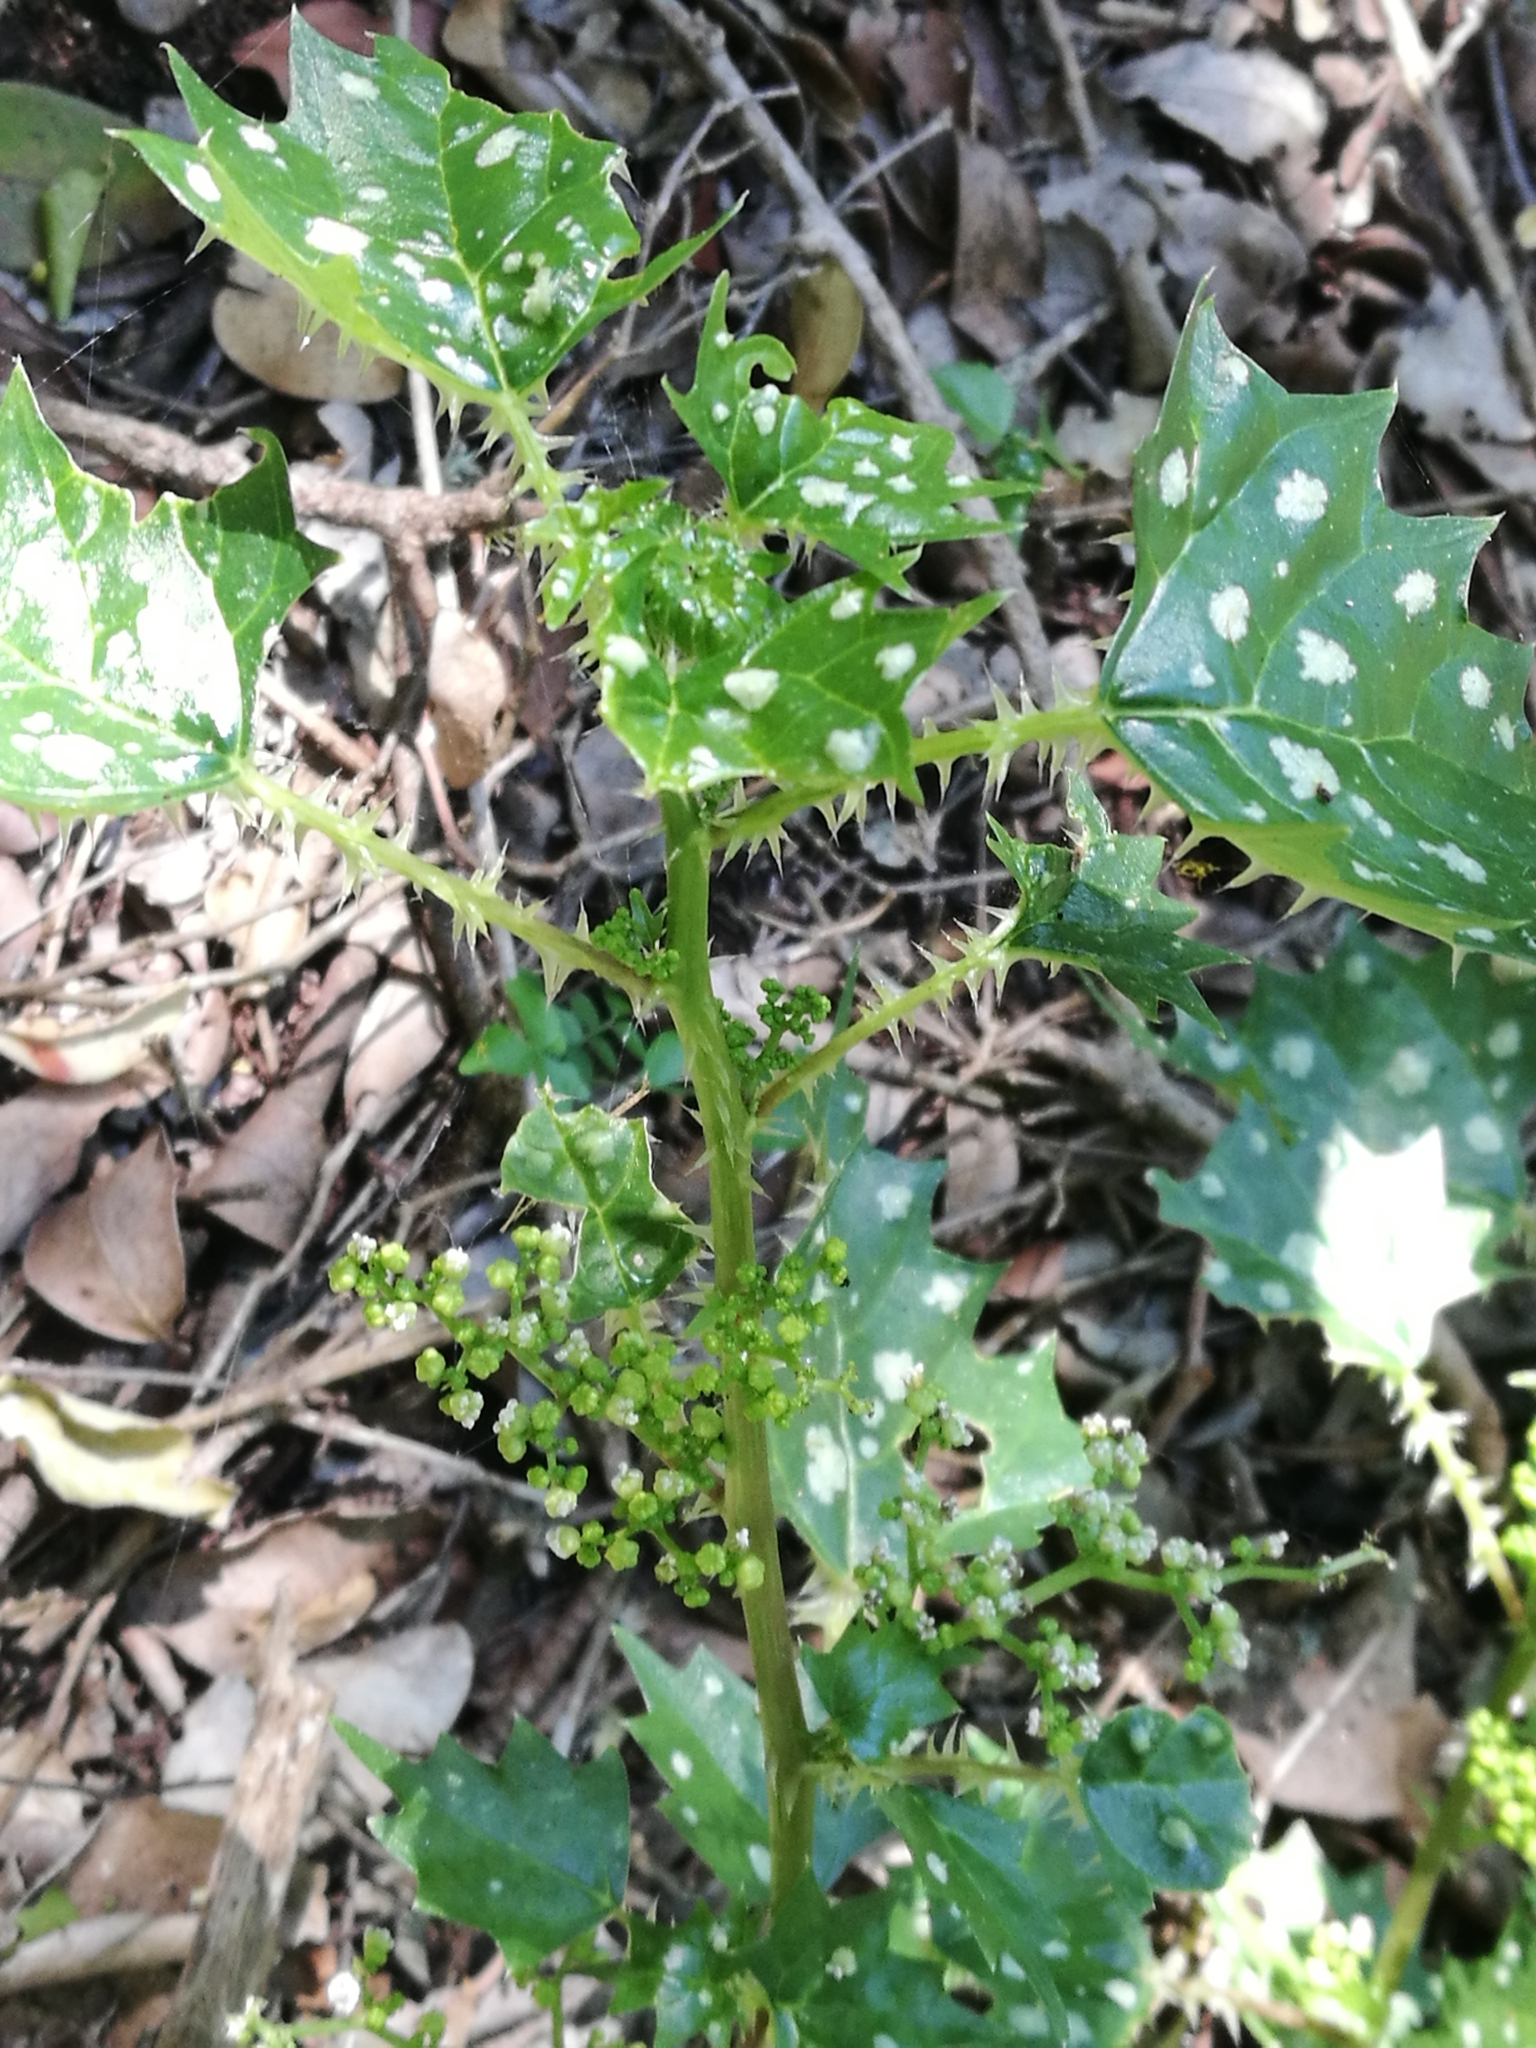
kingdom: Plantae
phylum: Tracheophyta
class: Magnoliopsida
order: Rosales
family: Urticaceae
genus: Laportea
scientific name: Laportea grossa
